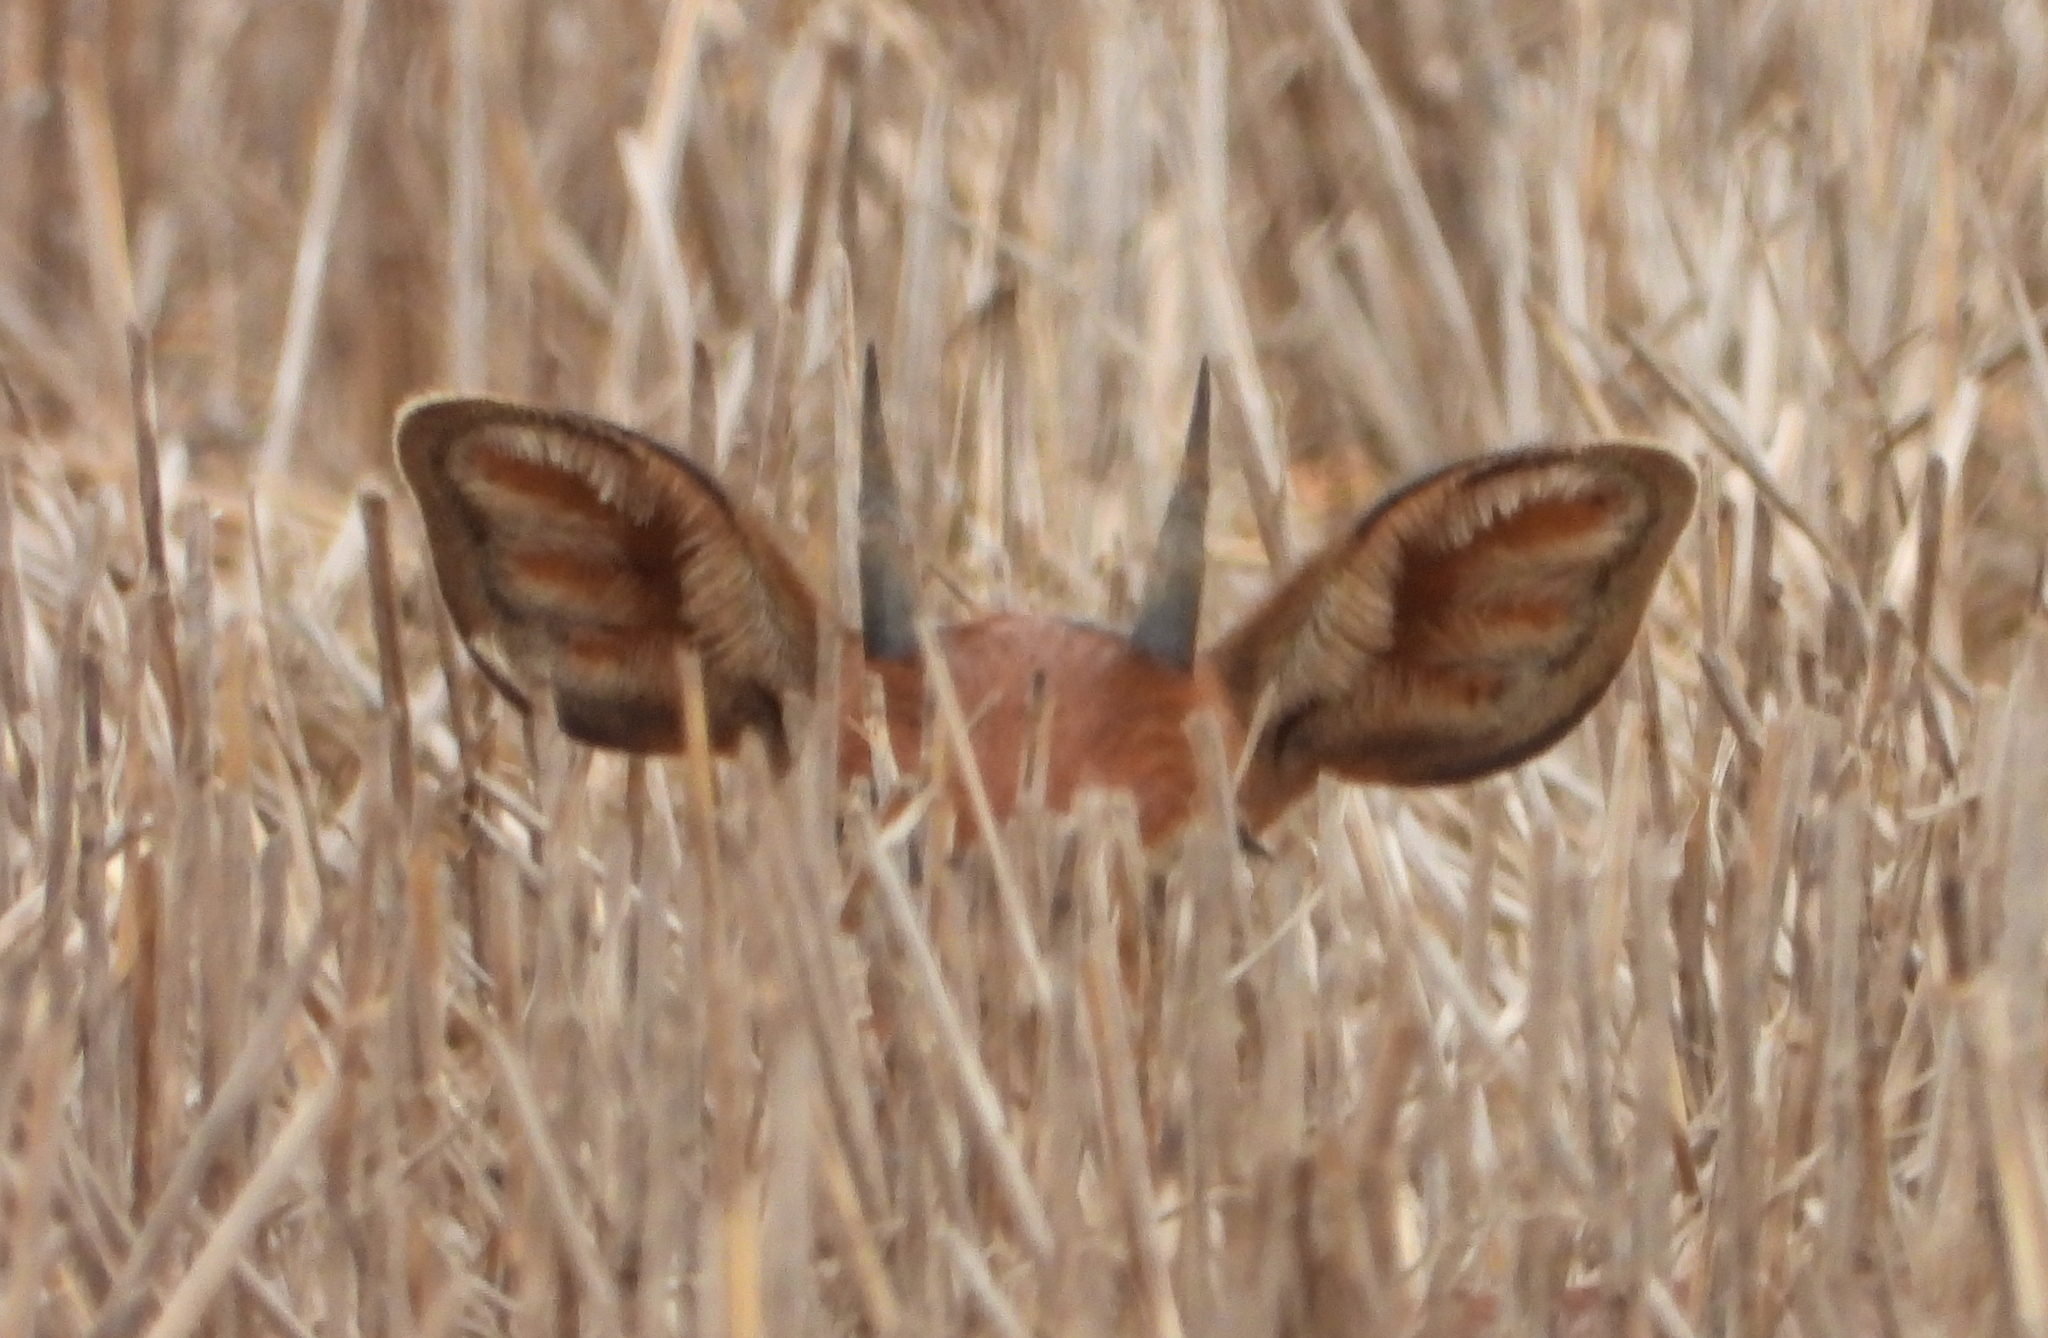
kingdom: Animalia
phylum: Chordata
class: Mammalia
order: Artiodactyla
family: Bovidae
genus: Raphicerus
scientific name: Raphicerus campestris
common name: Steenbok
